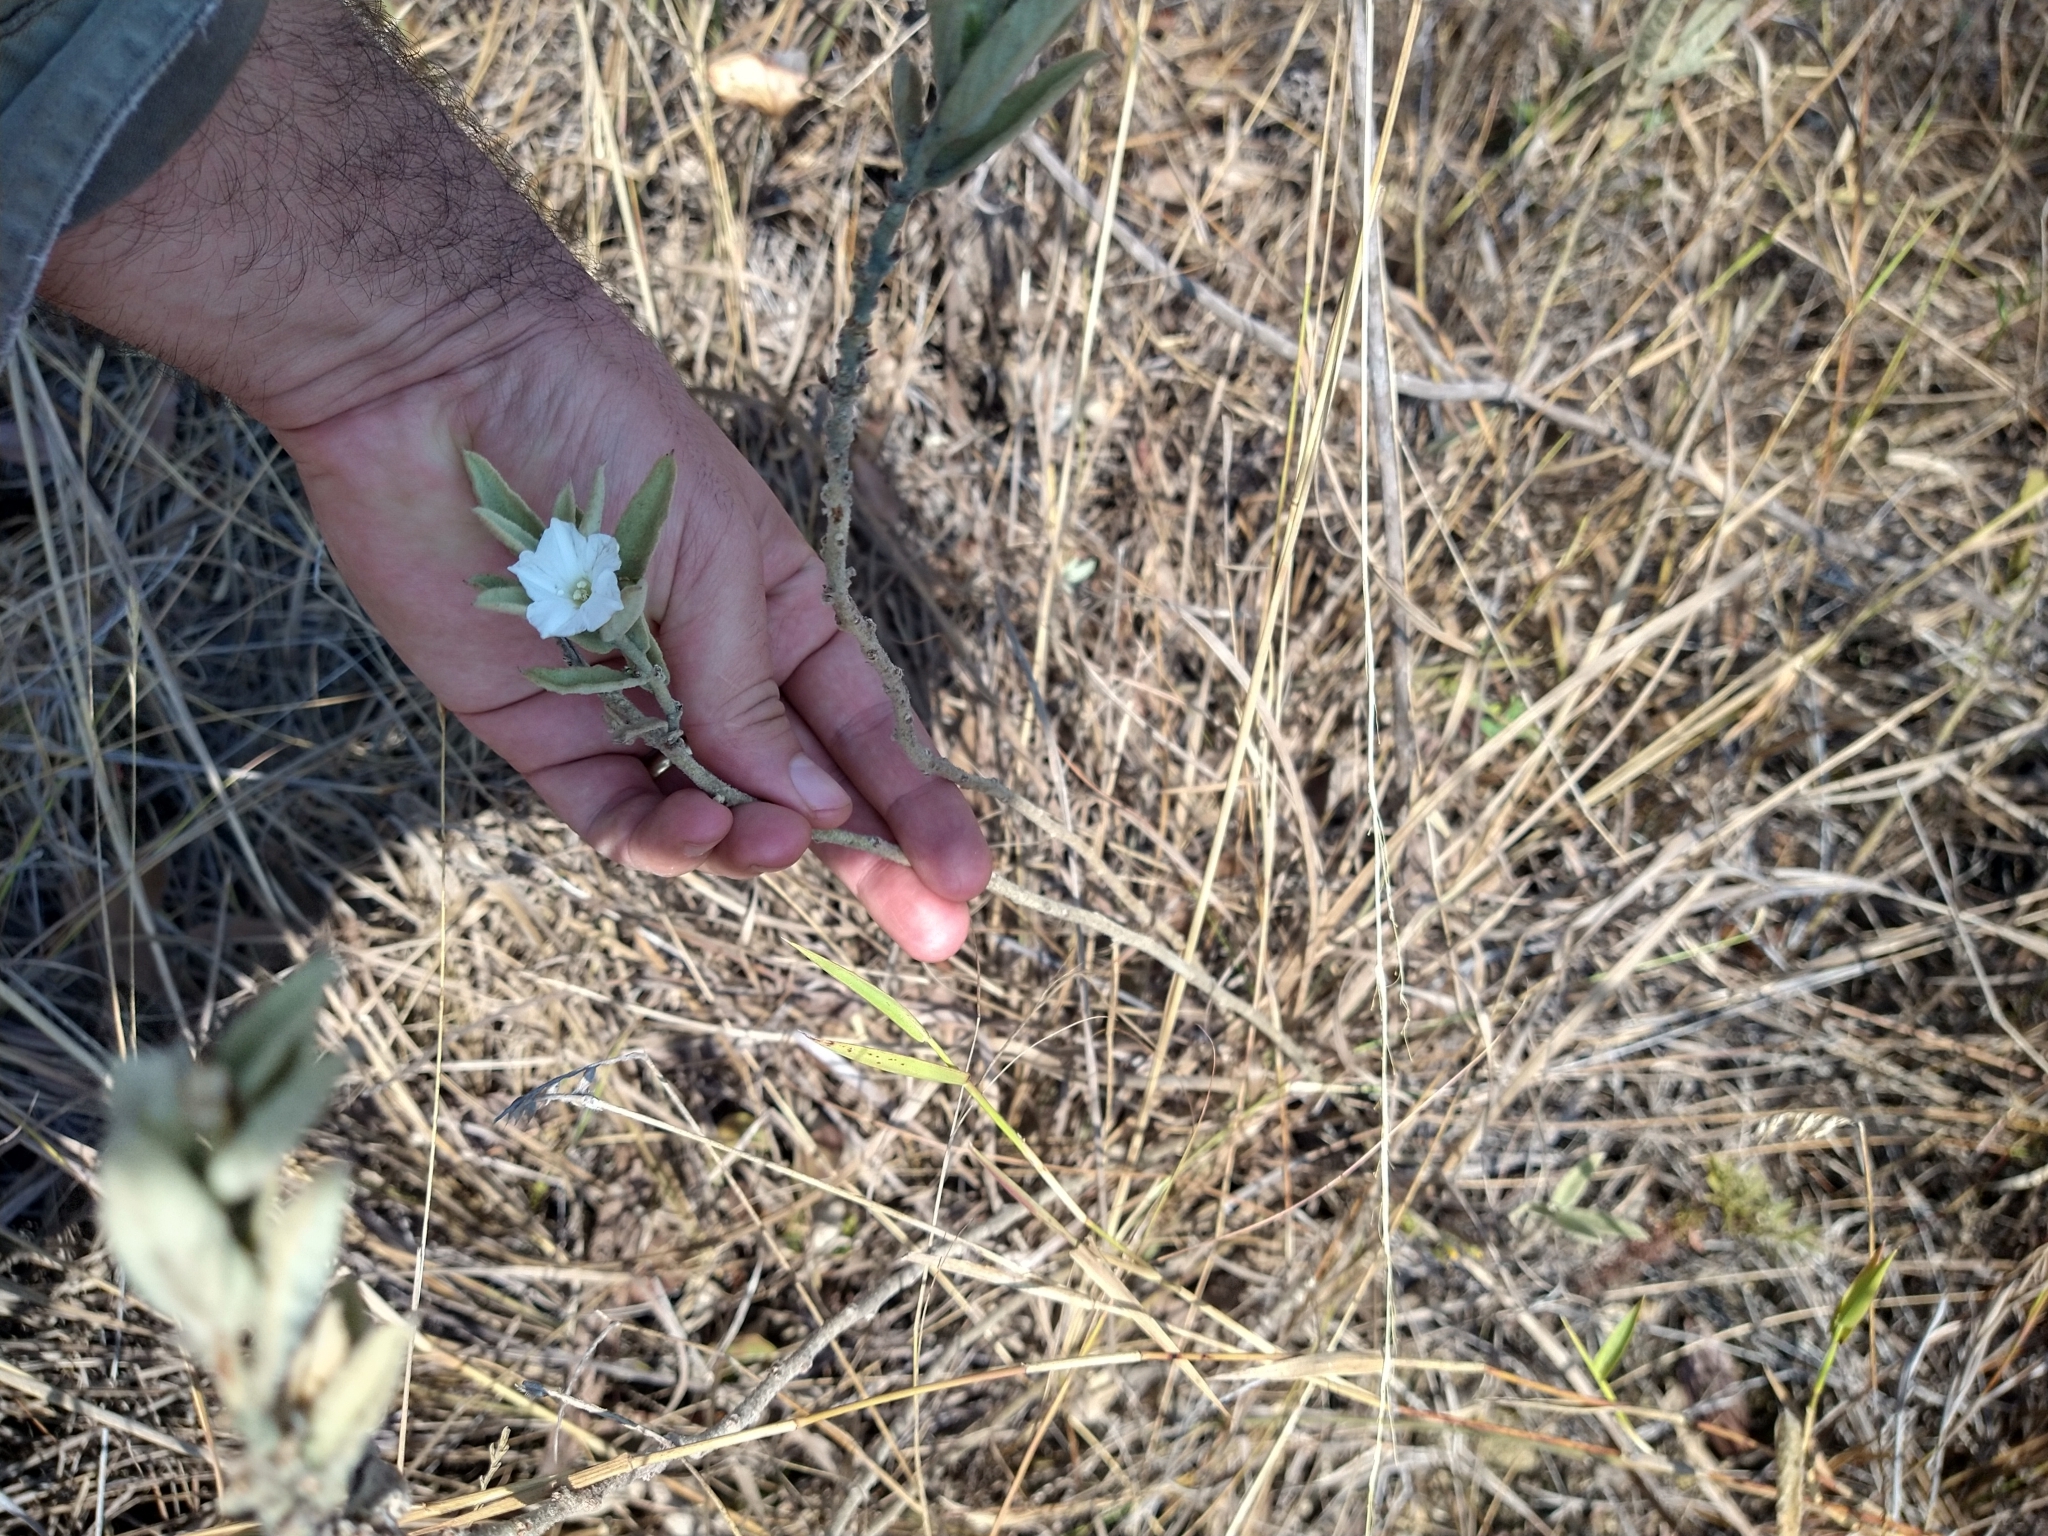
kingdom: Plantae
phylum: Tracheophyta
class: Magnoliopsida
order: Solanales
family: Convolvulaceae
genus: Distimake
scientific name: Distimake tomentosus
